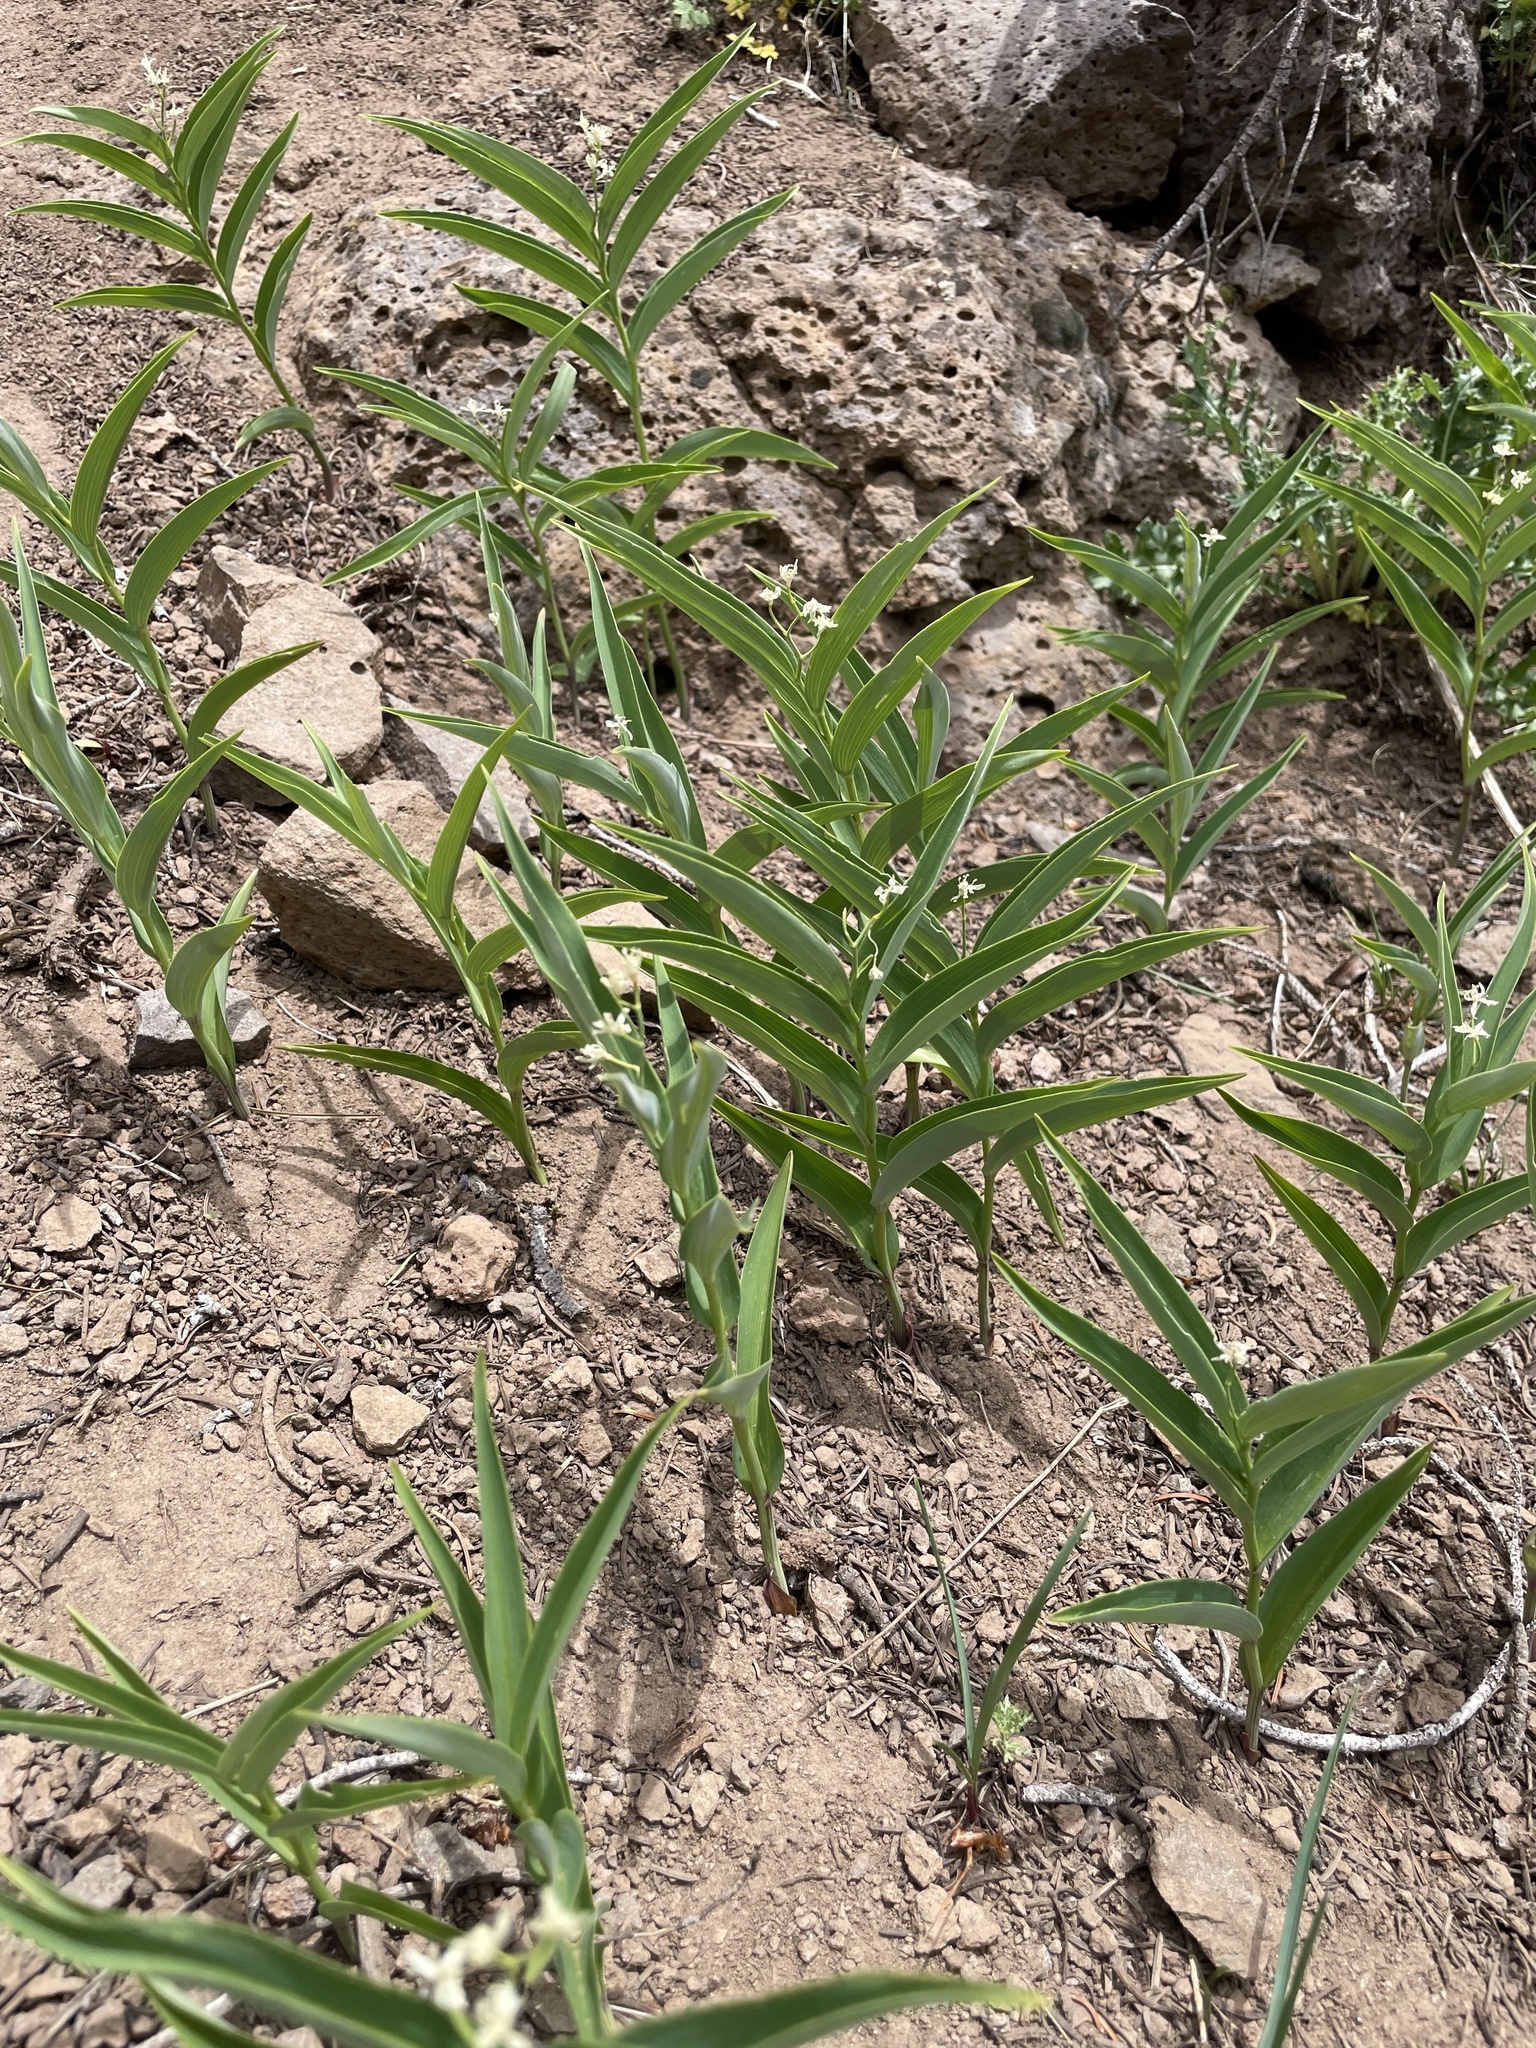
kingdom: Plantae
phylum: Tracheophyta
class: Liliopsida
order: Asparagales
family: Asparagaceae
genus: Maianthemum
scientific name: Maianthemum stellatum
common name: Little false solomon's seal
